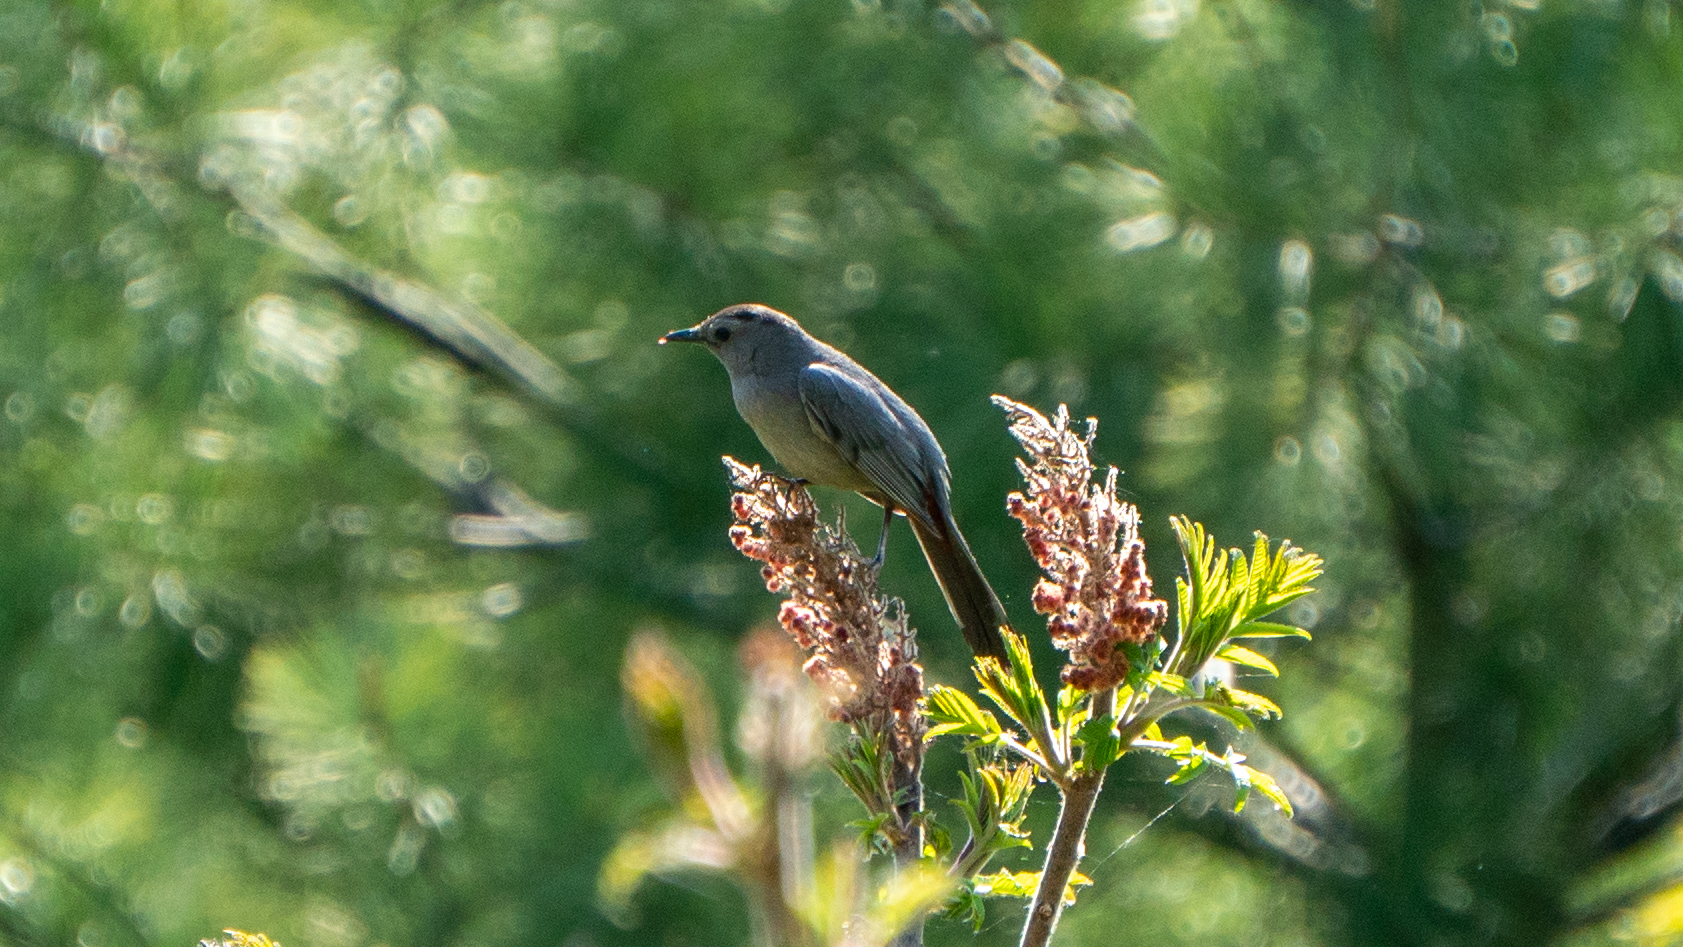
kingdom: Plantae
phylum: Tracheophyta
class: Magnoliopsida
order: Sapindales
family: Anacardiaceae
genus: Rhus
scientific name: Rhus typhina
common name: Staghorn sumac
